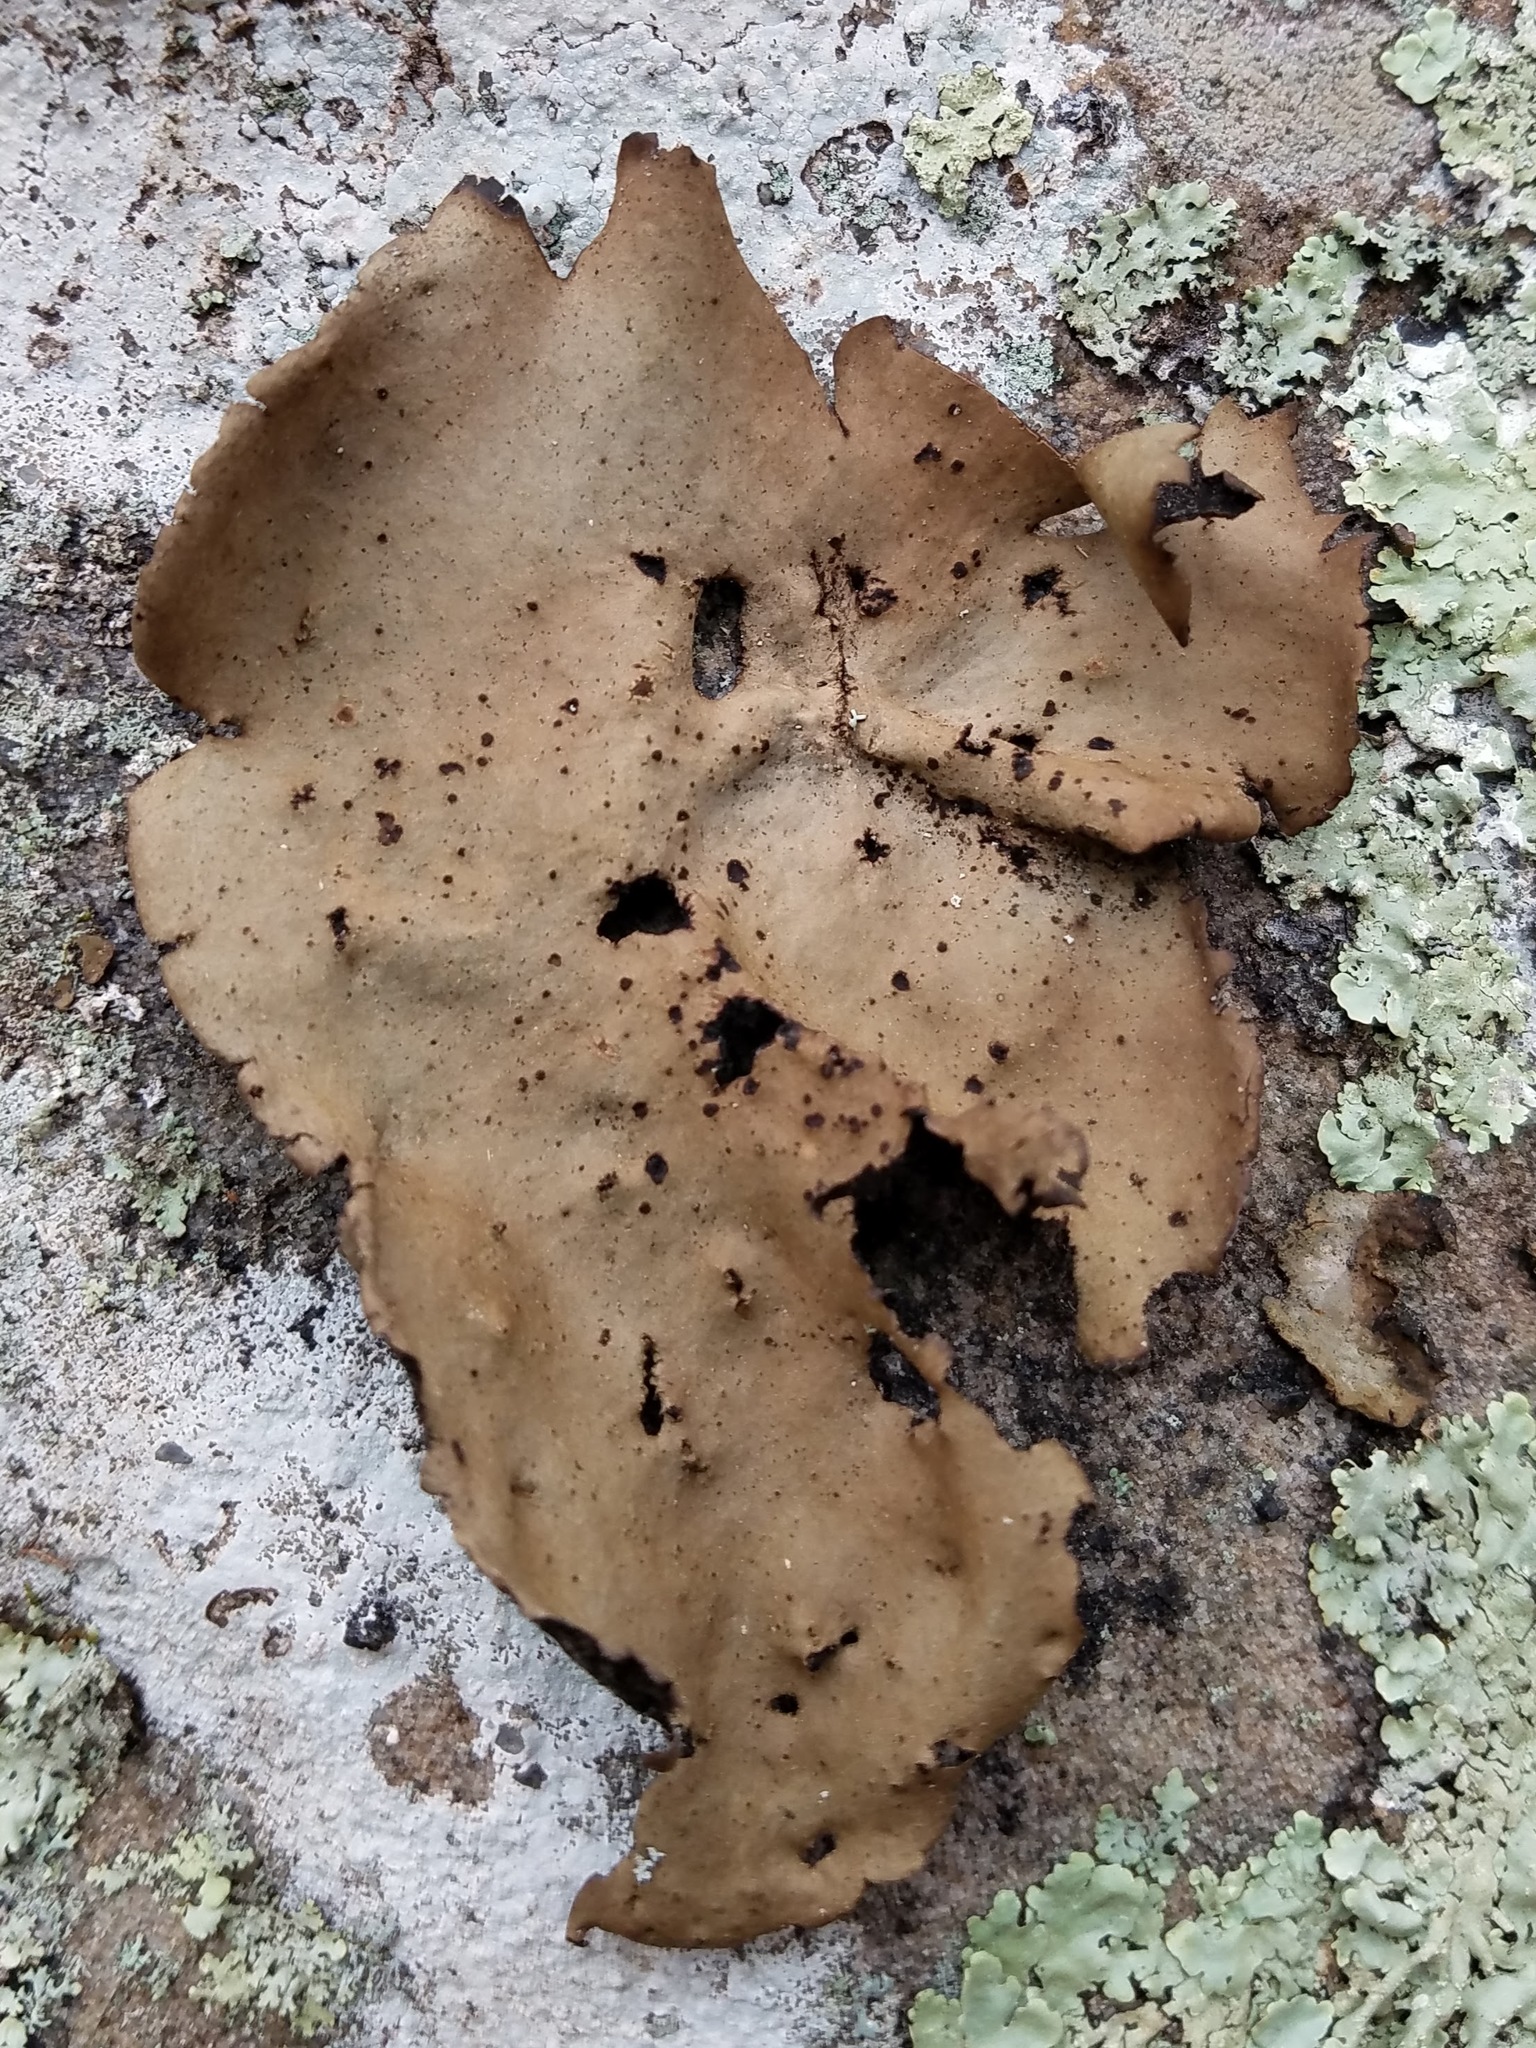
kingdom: Fungi
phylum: Ascomycota
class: Lecanoromycetes
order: Umbilicariales
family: Umbilicariaceae
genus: Umbilicaria
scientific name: Umbilicaria mammulata
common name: Smooth rock tripe
